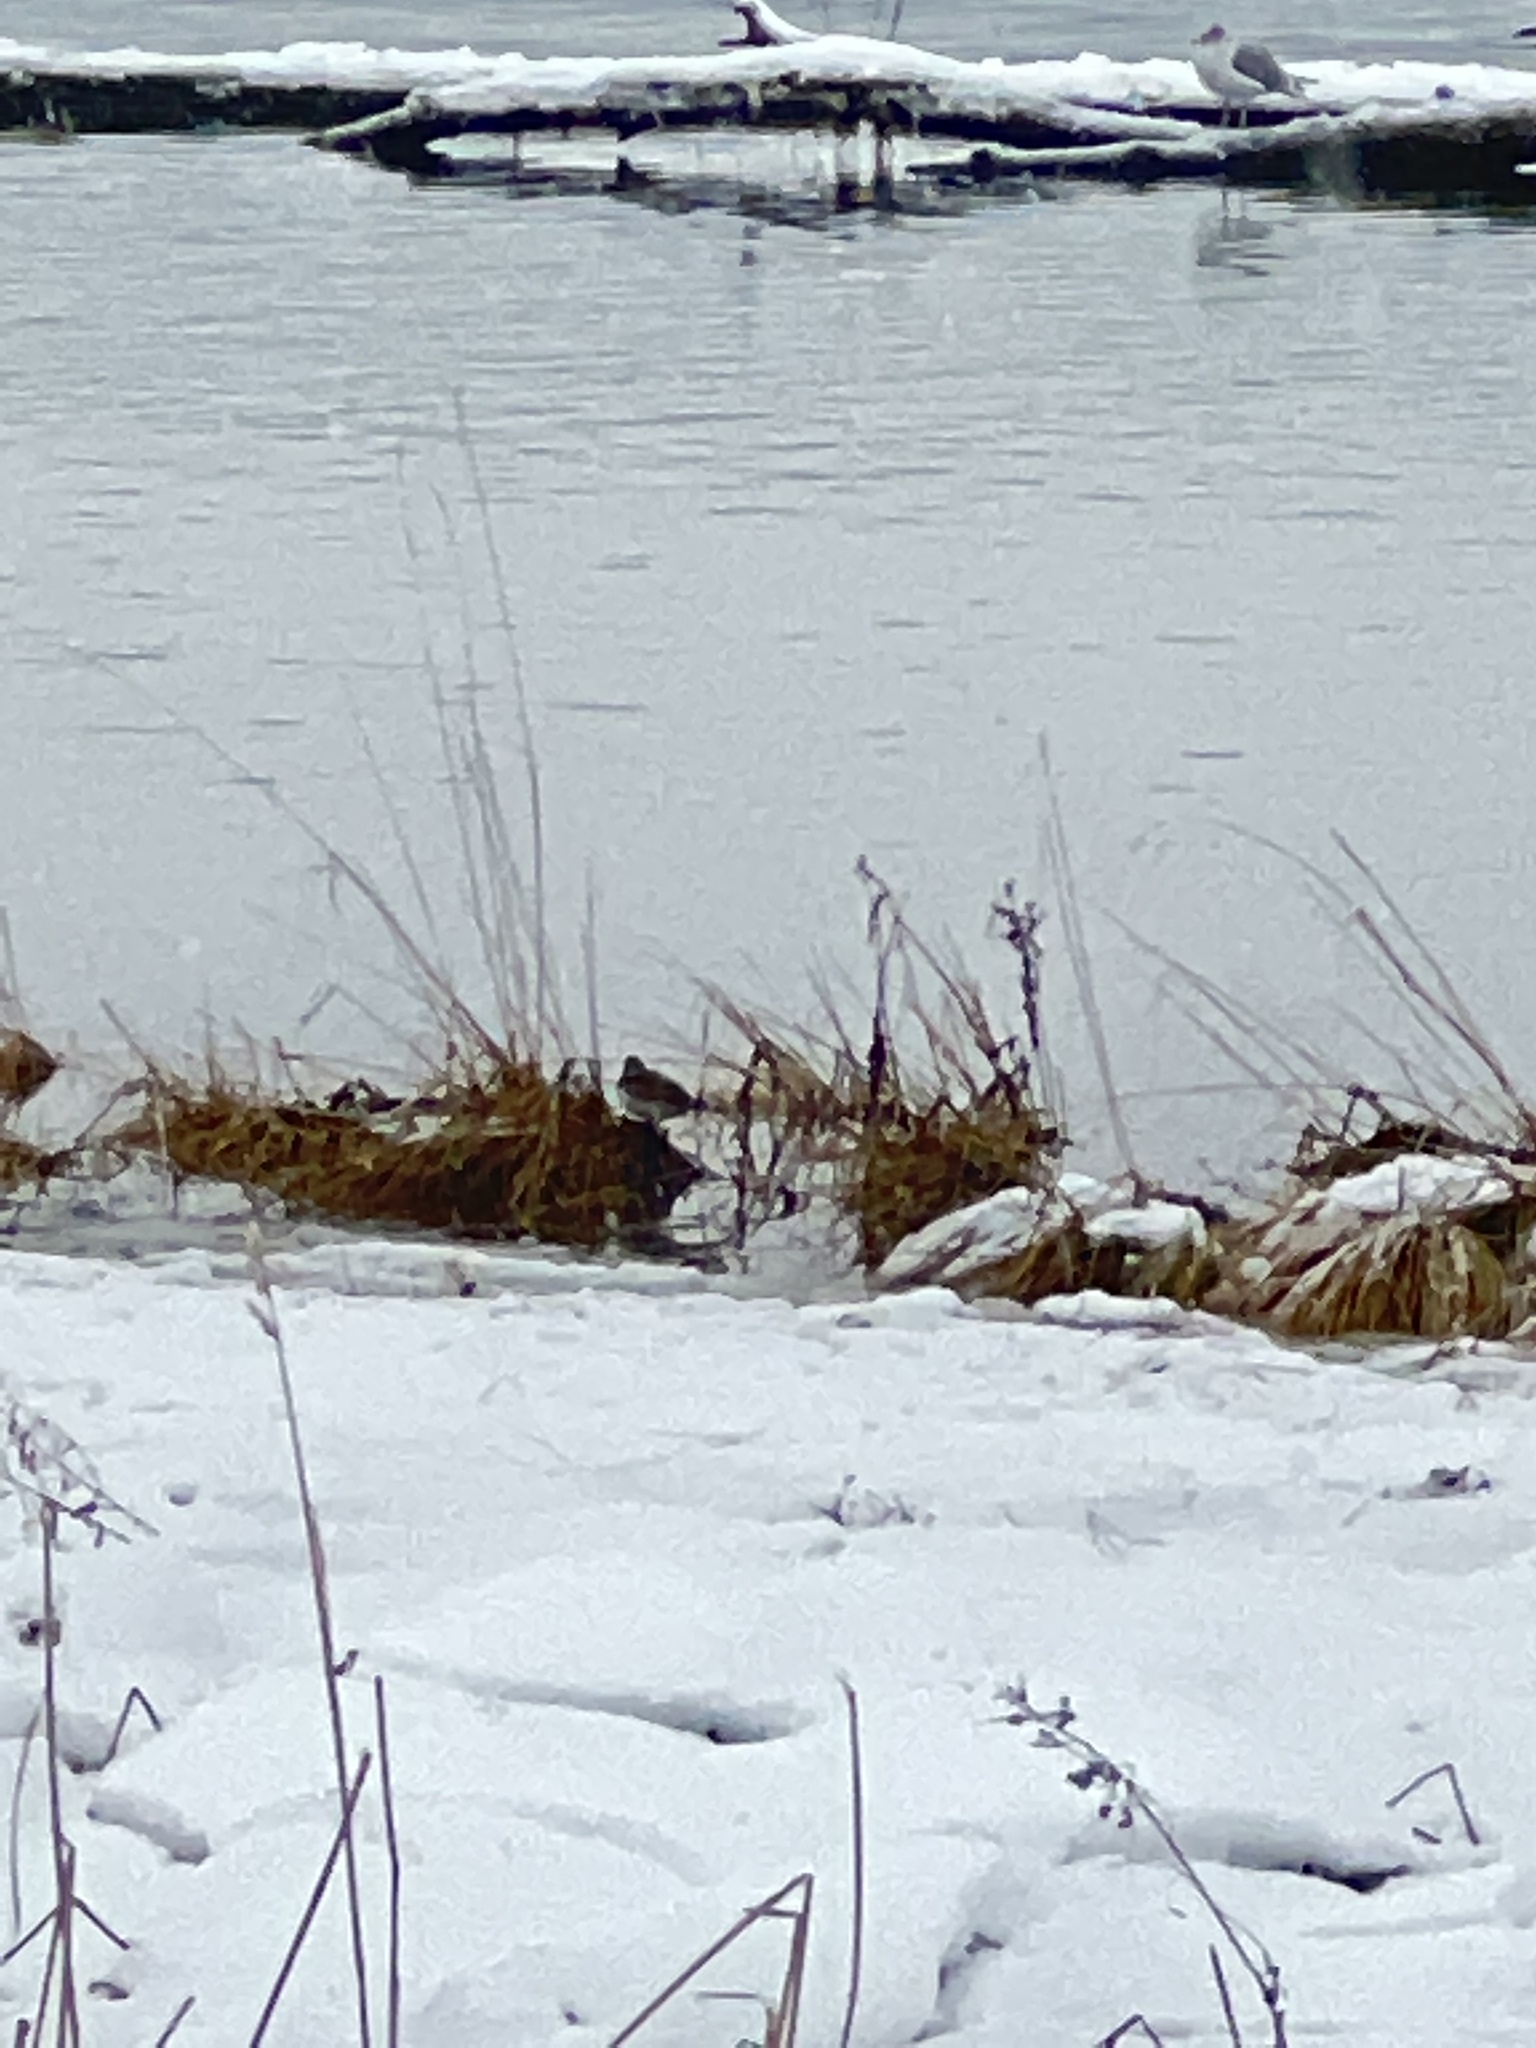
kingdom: Animalia
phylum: Chordata
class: Aves
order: Charadriiformes
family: Charadriidae
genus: Charadrius
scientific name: Charadrius vociferus
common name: Killdeer
